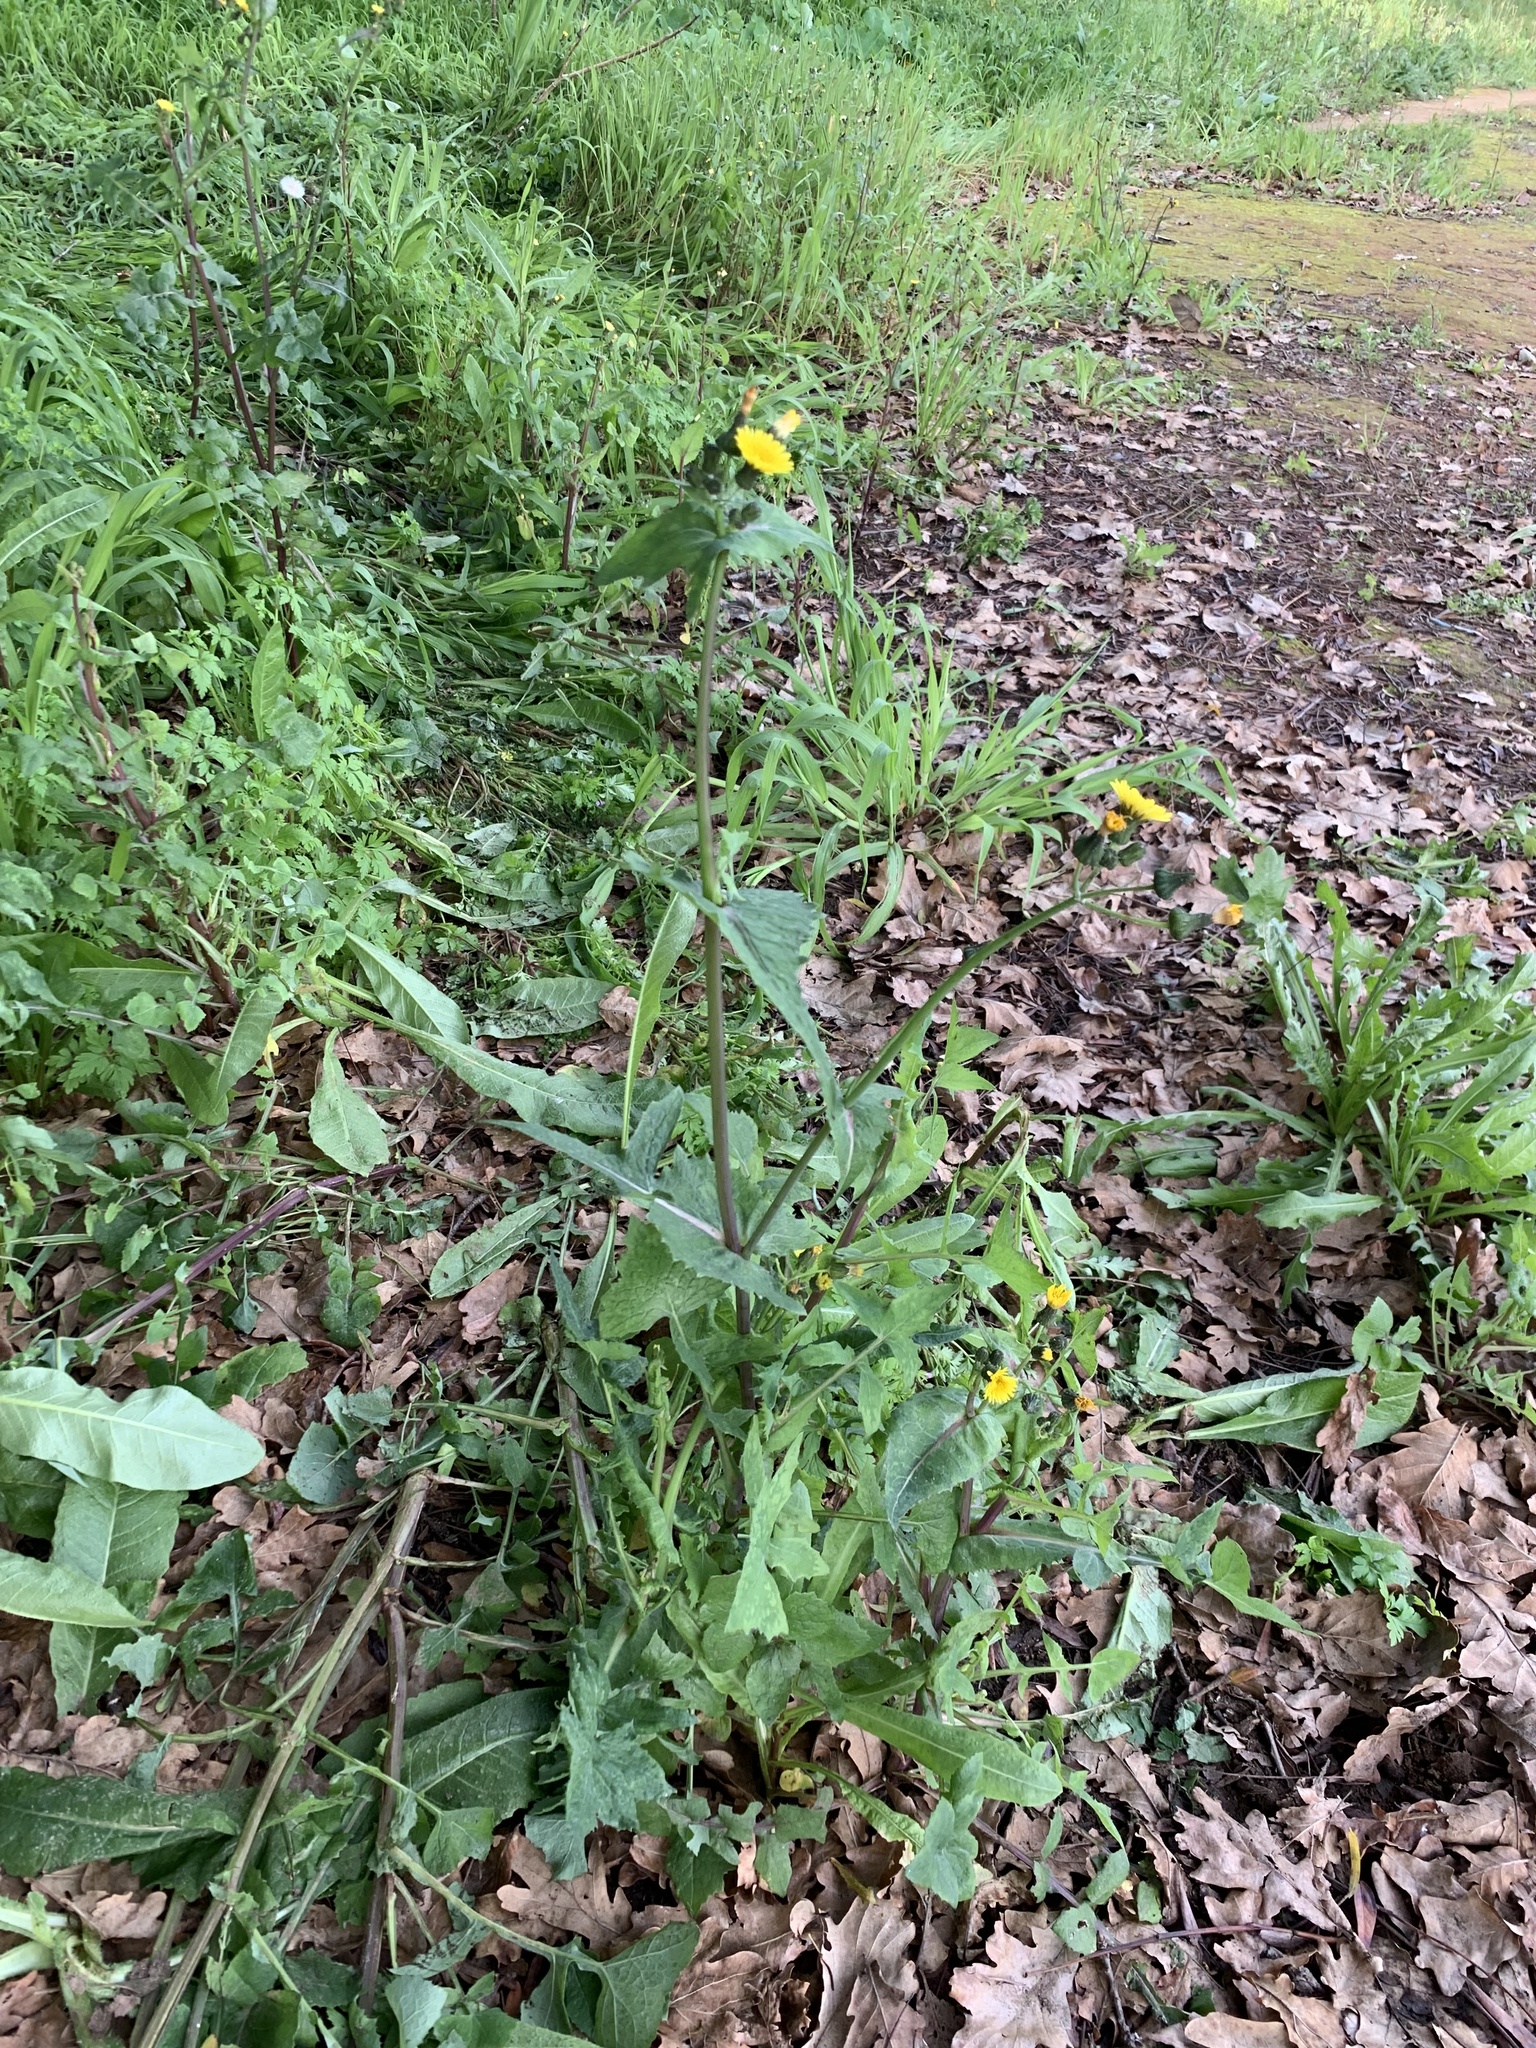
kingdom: Plantae
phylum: Tracheophyta
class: Magnoliopsida
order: Asterales
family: Asteraceae
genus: Sonchus
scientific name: Sonchus oleraceus
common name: Common sowthistle
